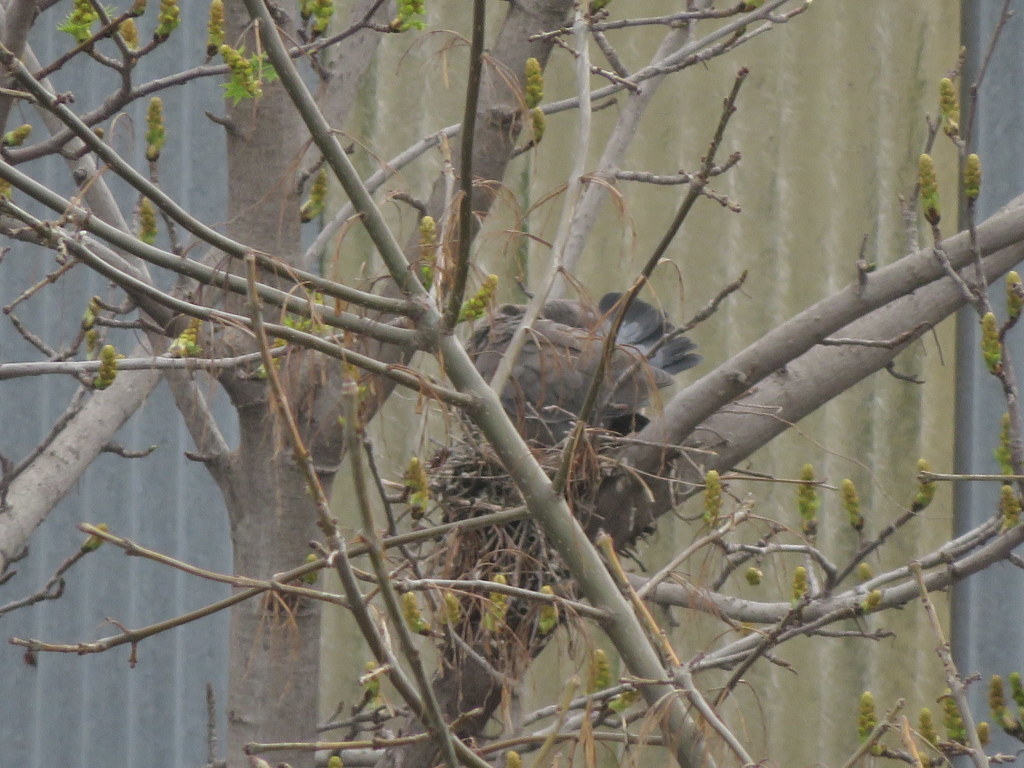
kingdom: Animalia
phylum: Chordata
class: Aves
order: Columbiformes
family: Columbidae
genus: Patagioenas
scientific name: Patagioenas picazuro
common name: Picazuro pigeon
